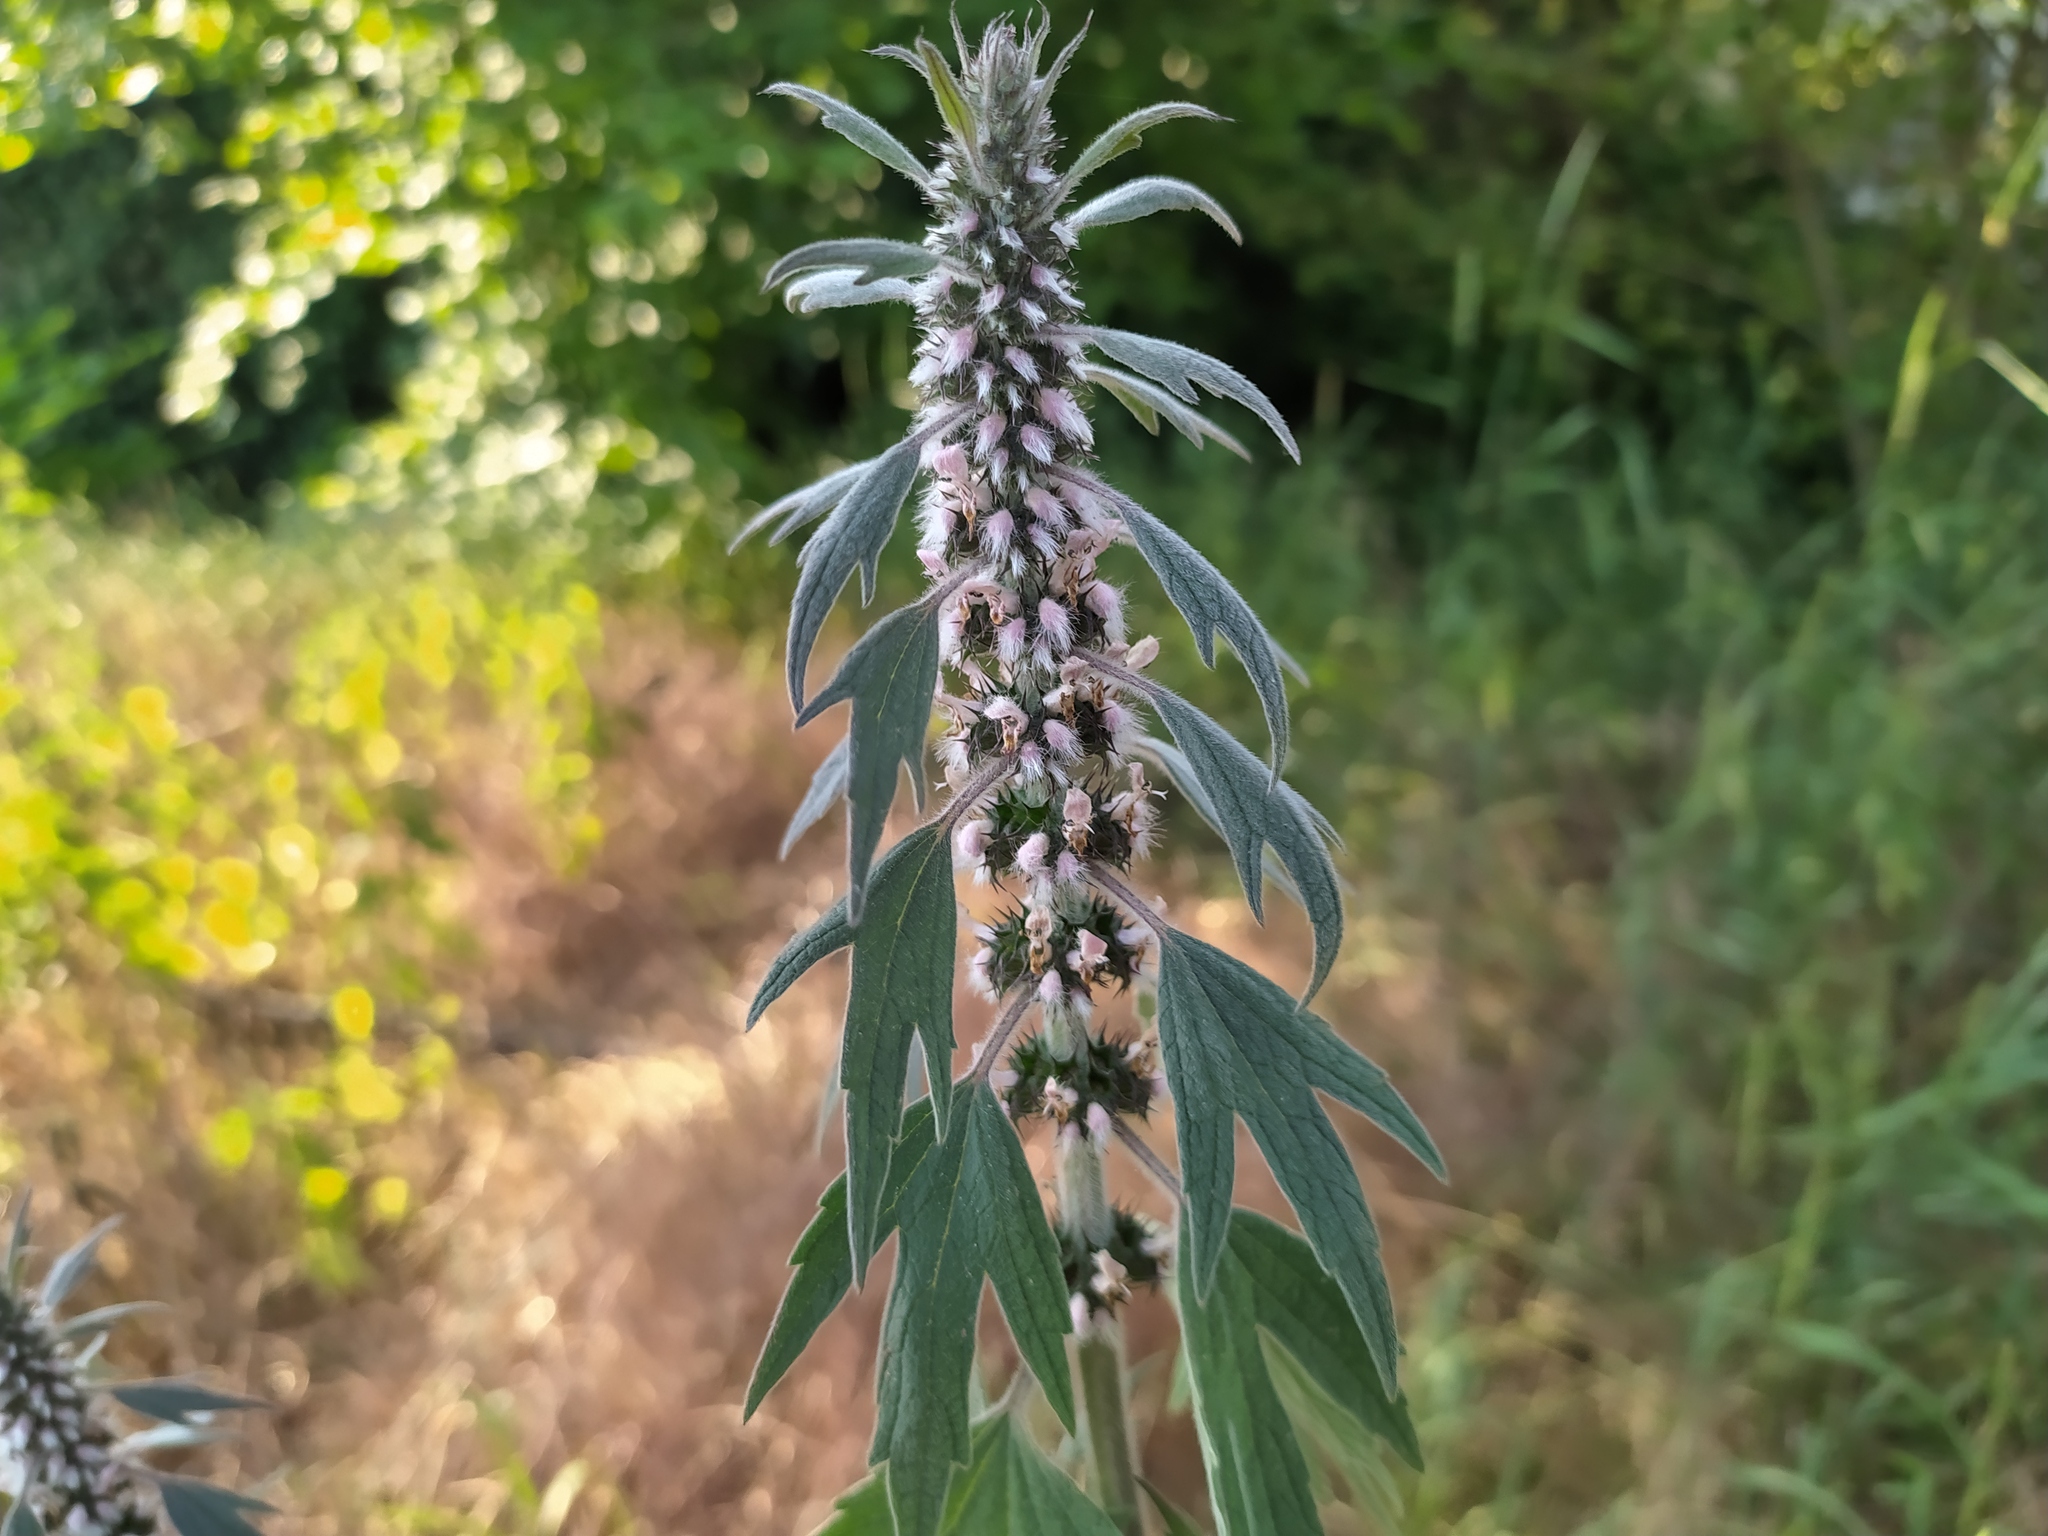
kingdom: Plantae
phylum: Tracheophyta
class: Magnoliopsida
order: Lamiales
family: Lamiaceae
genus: Leonurus
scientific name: Leonurus quinquelobatus
